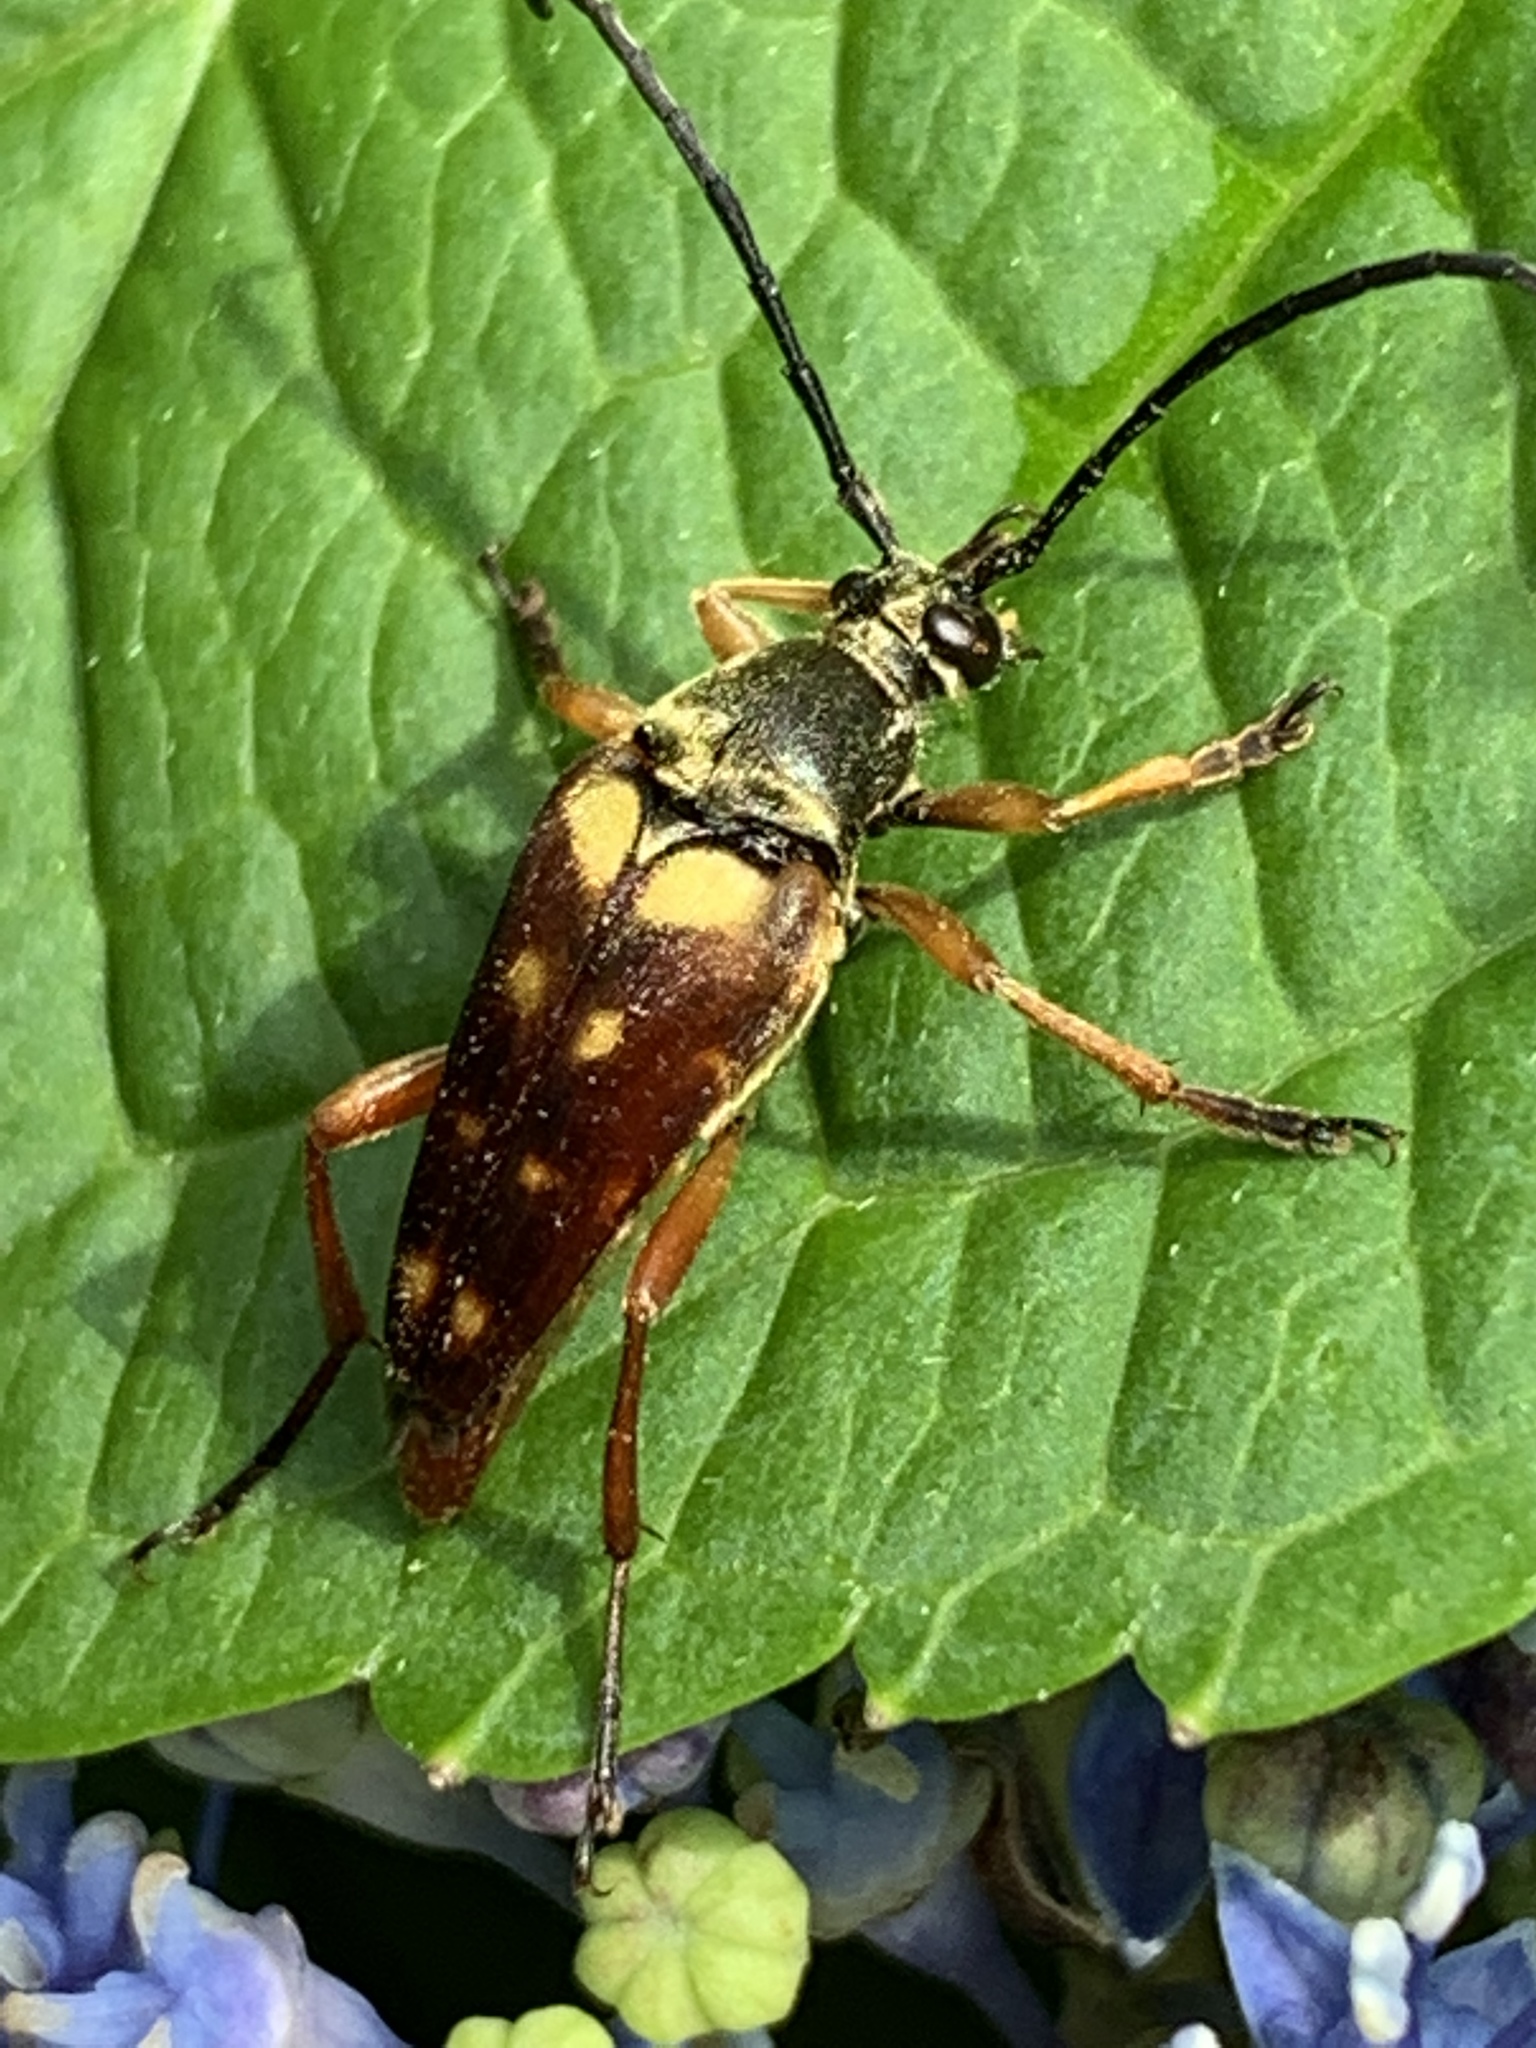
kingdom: Animalia
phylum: Arthropoda
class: Insecta
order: Coleoptera
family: Cerambycidae
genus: Typocerus
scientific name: Typocerus velutinus
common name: Banded longhorn beetle
